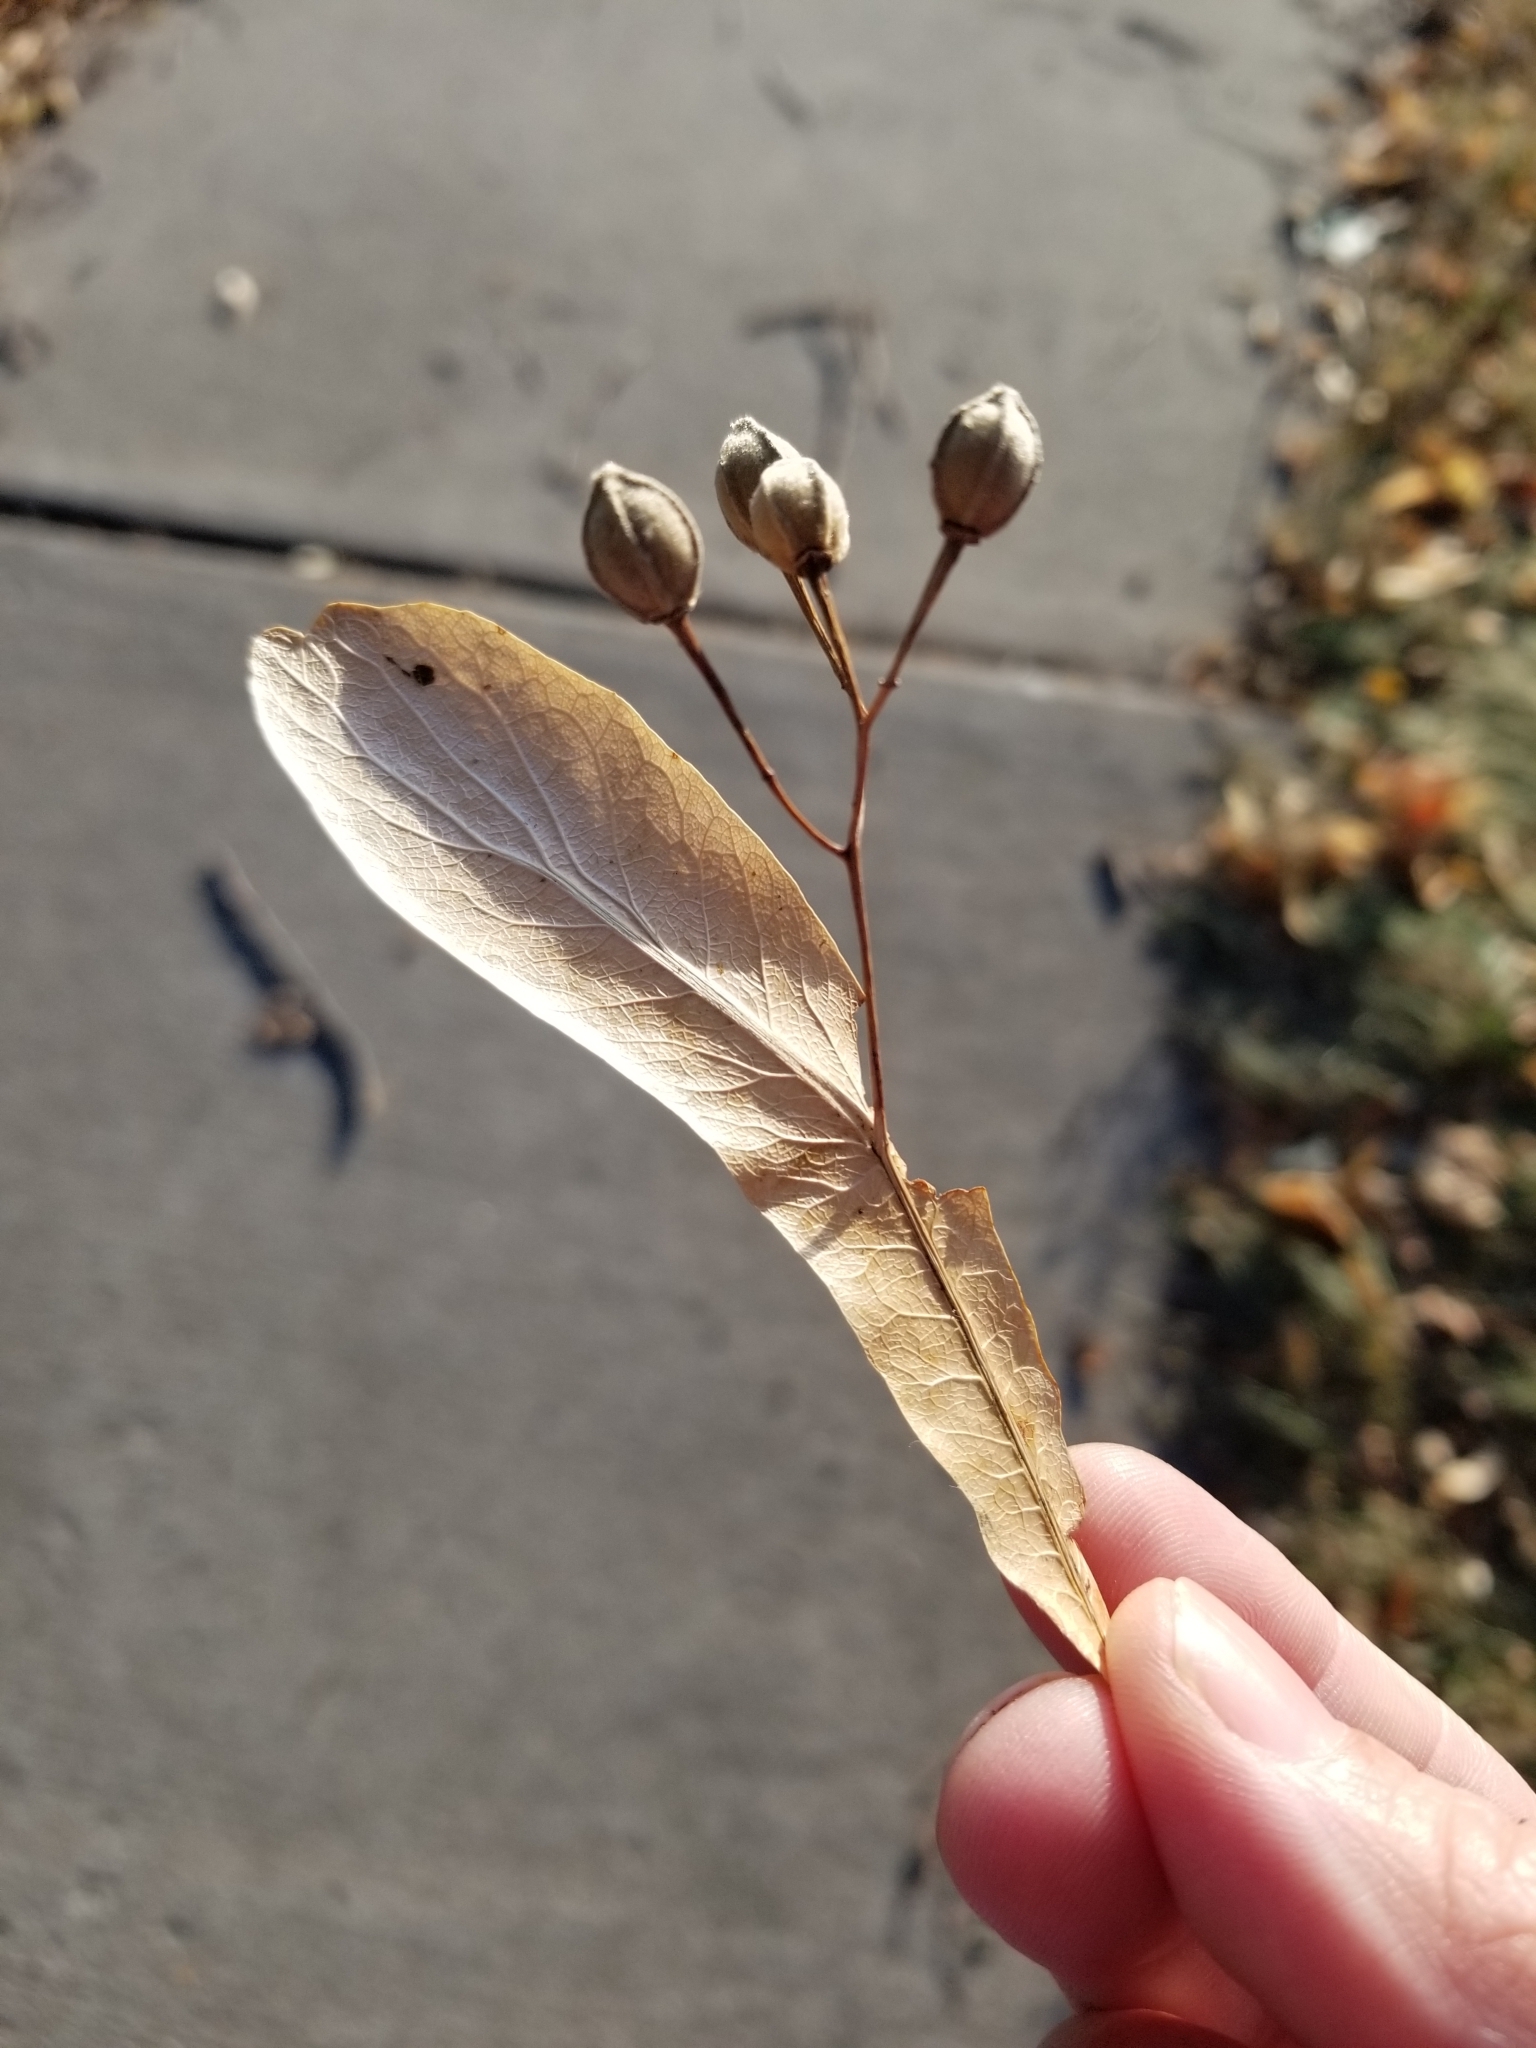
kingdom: Plantae
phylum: Tracheophyta
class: Magnoliopsida
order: Malvales
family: Malvaceae
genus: Tilia
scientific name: Tilia americana
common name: Basswood
